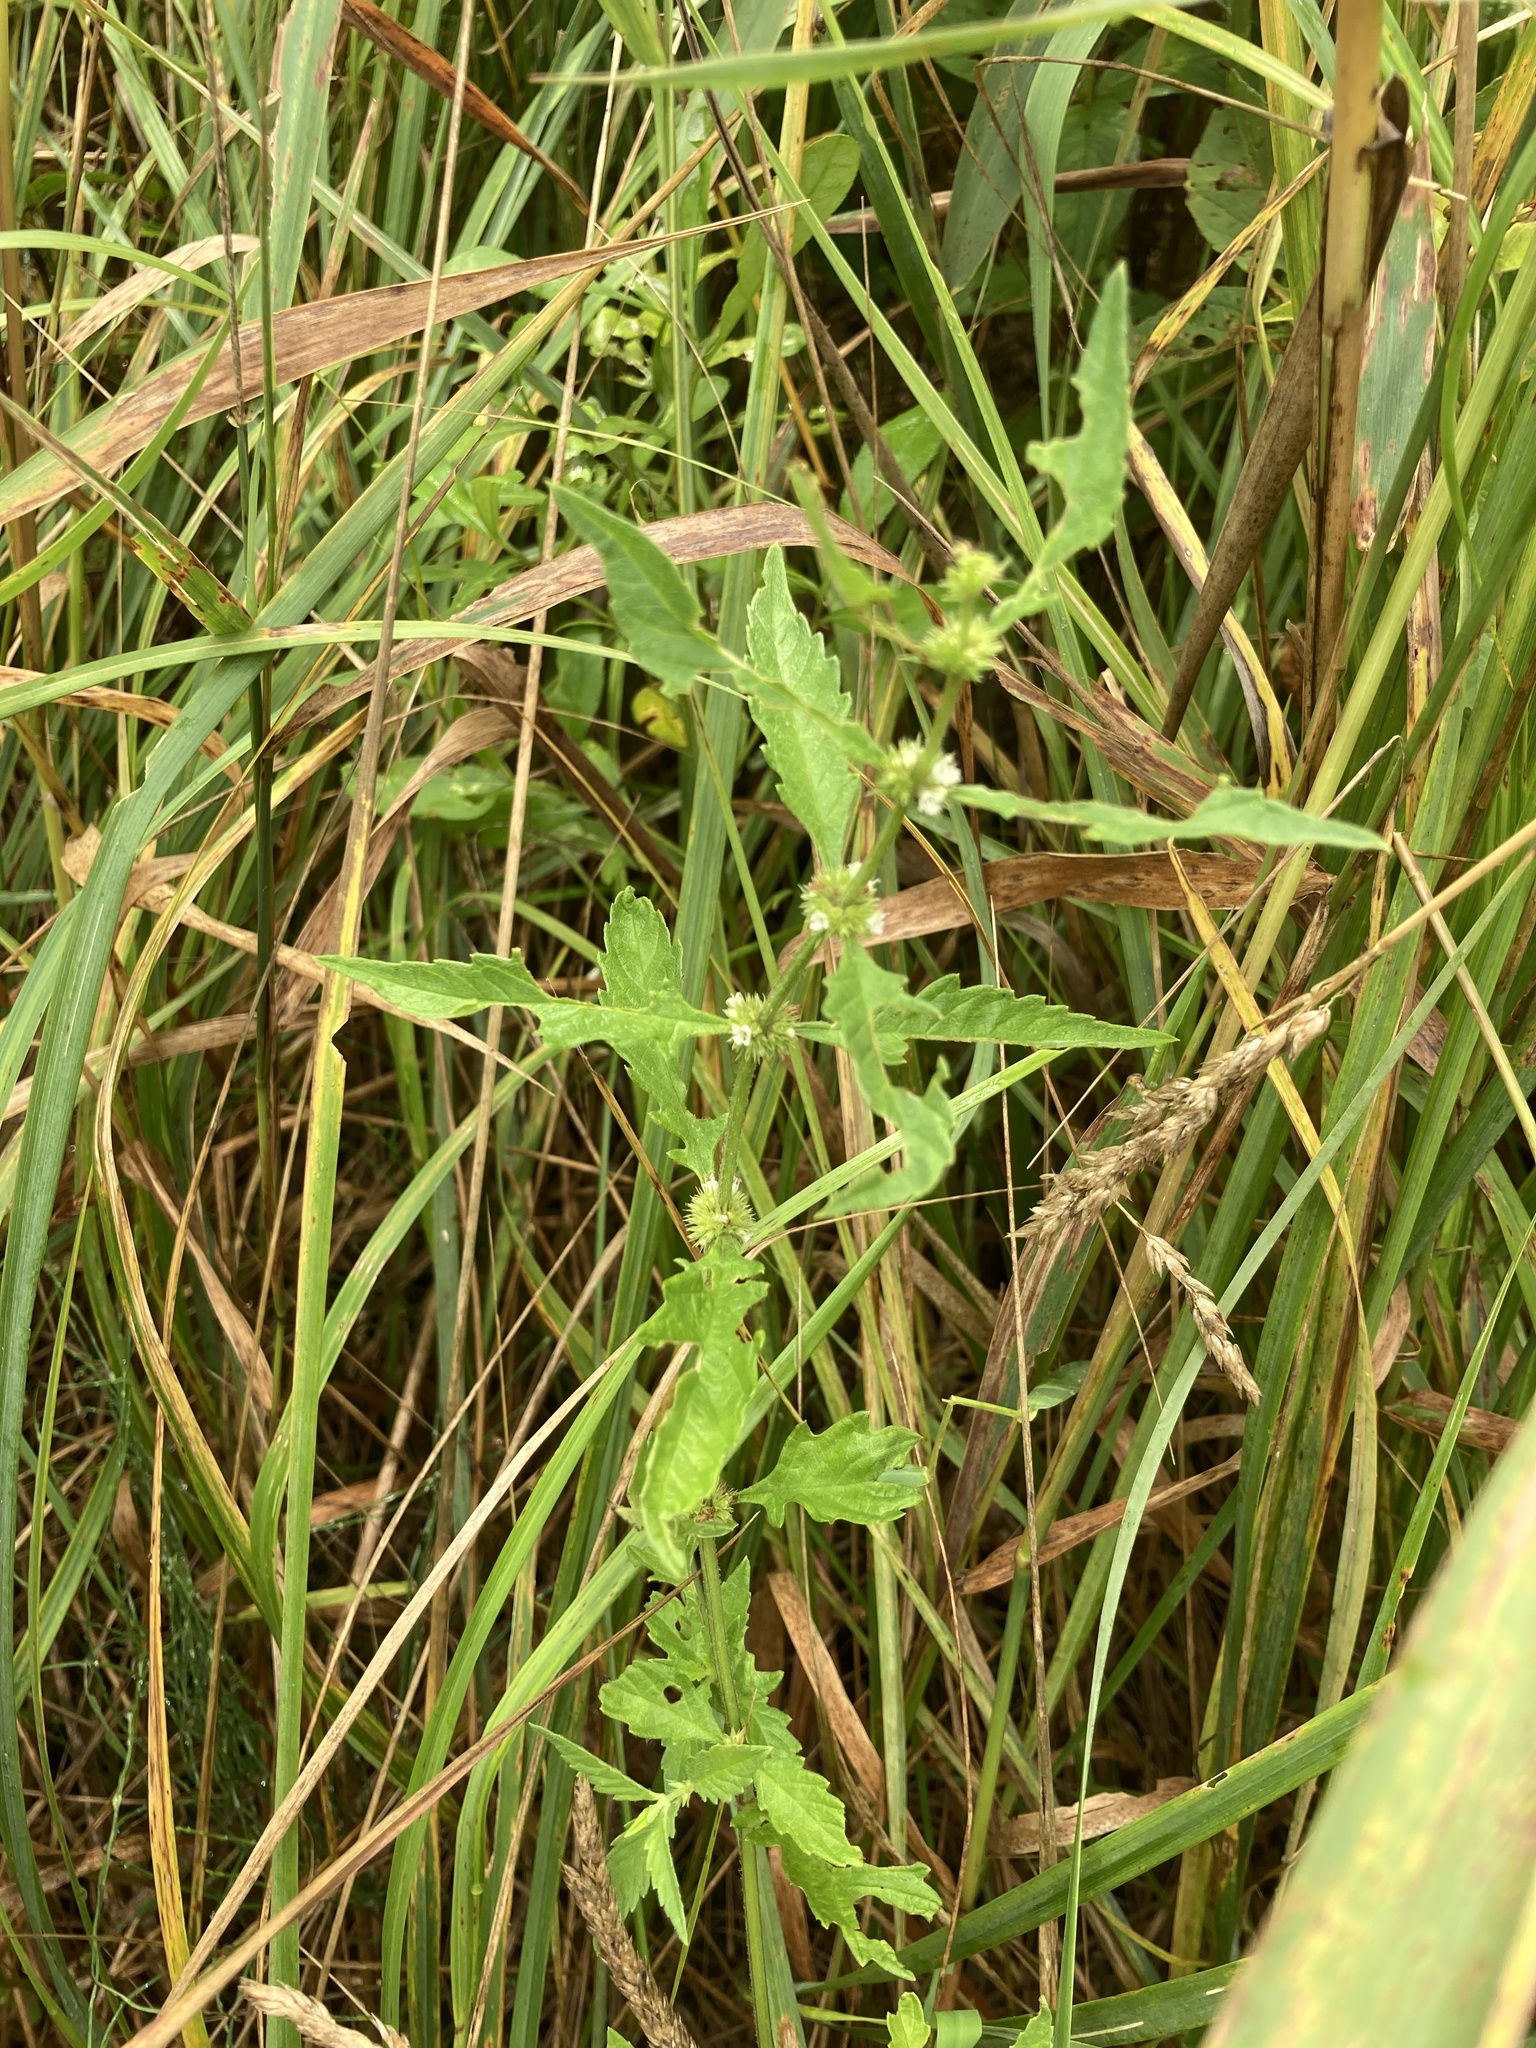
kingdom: Plantae
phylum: Tracheophyta
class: Magnoliopsida
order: Lamiales
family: Lamiaceae
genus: Lycopus
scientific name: Lycopus europaeus
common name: European bugleweed
